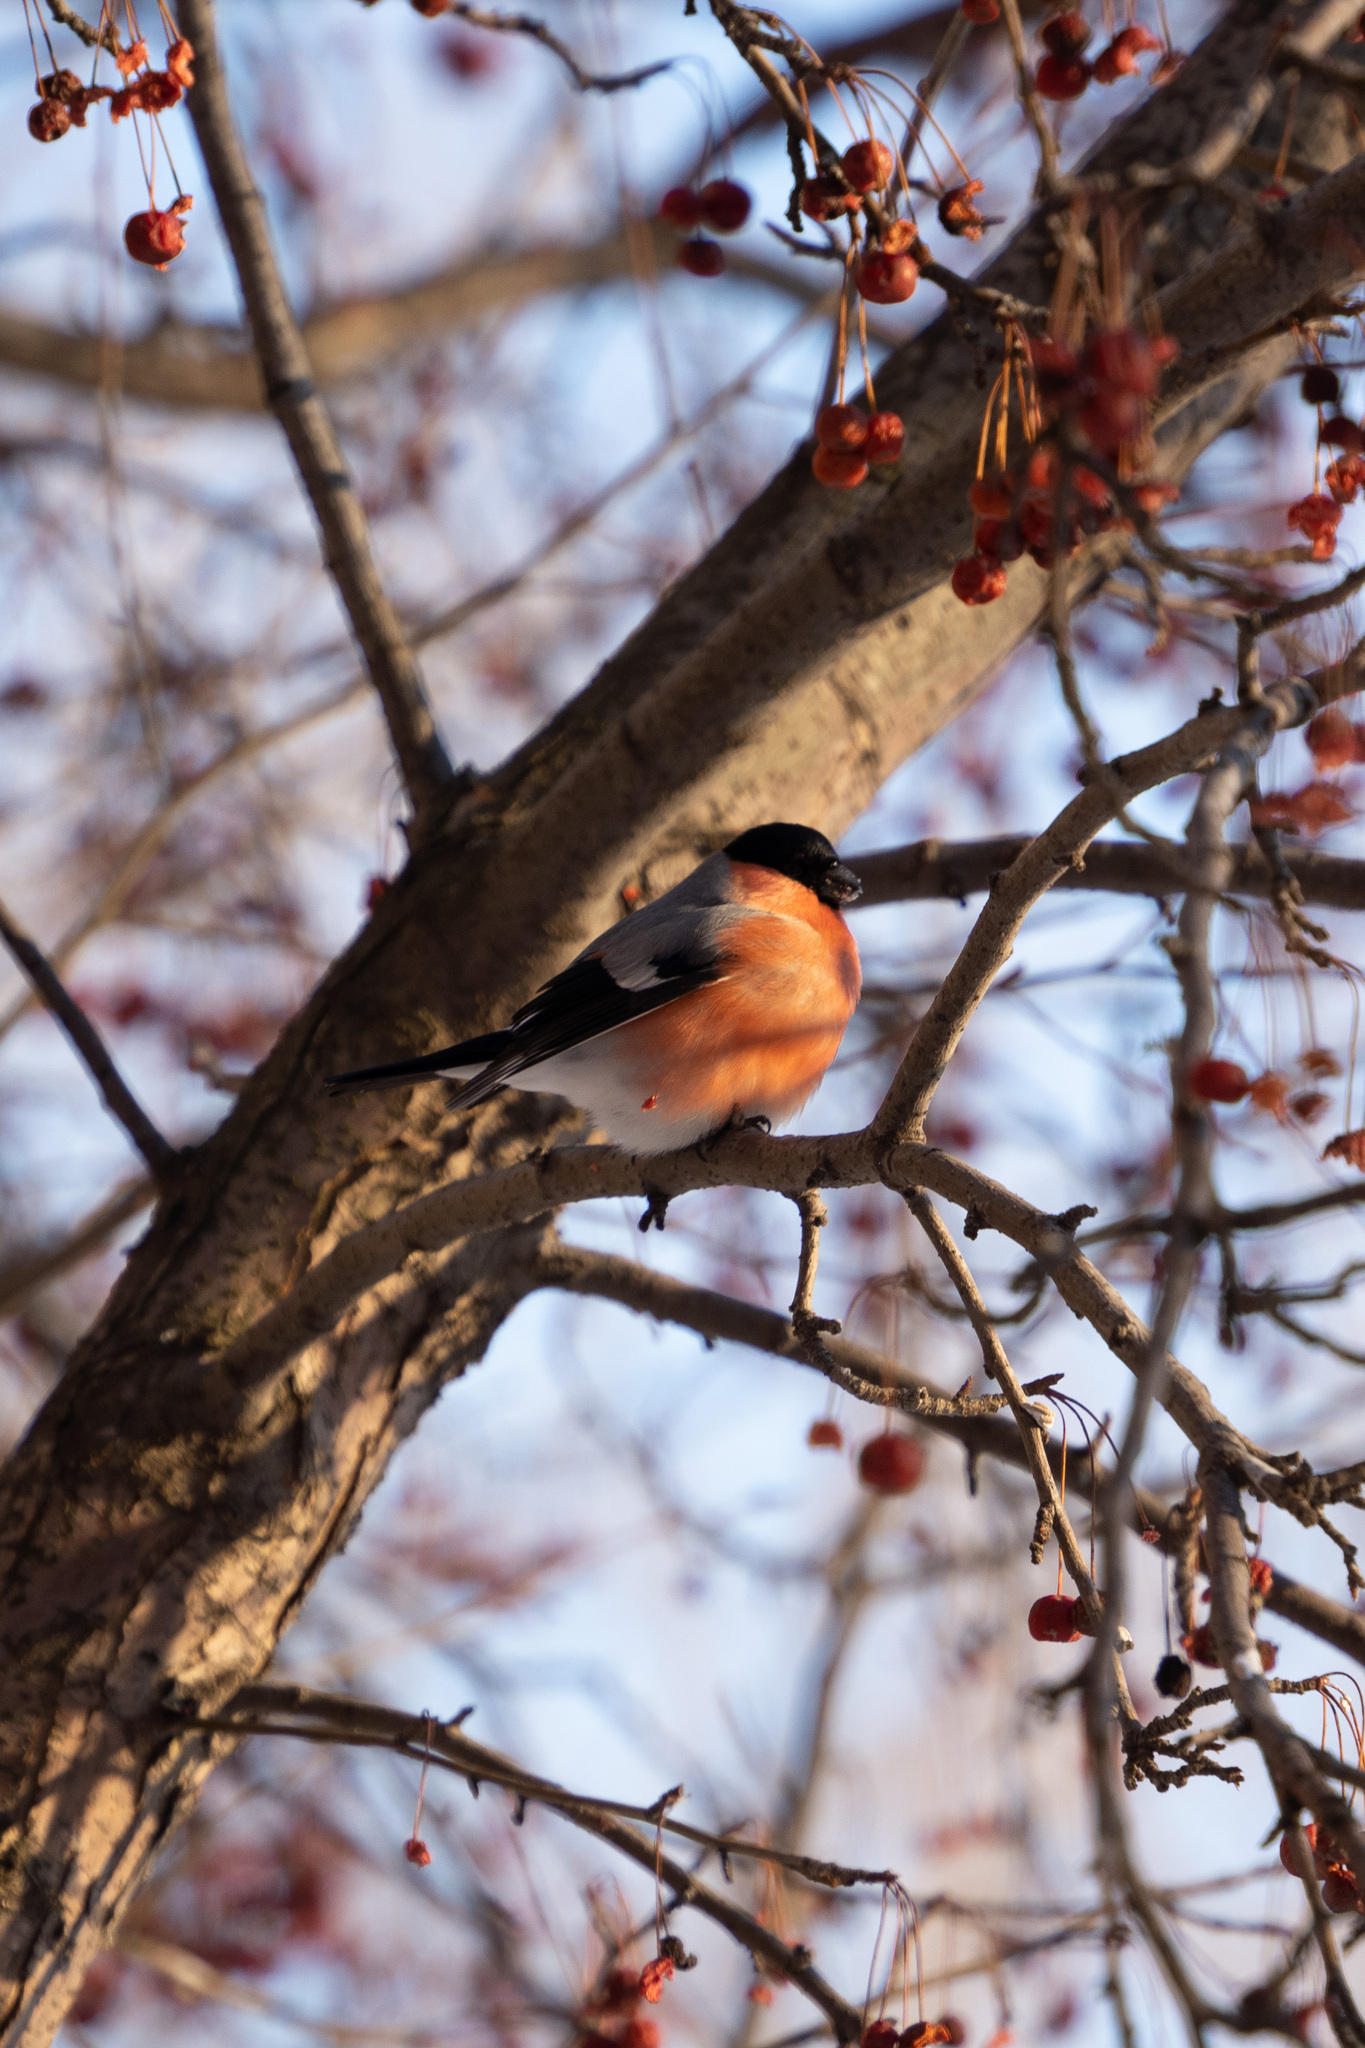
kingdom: Animalia
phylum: Chordata
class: Aves
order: Passeriformes
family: Fringillidae
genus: Pyrrhula
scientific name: Pyrrhula pyrrhula
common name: Eurasian bullfinch
